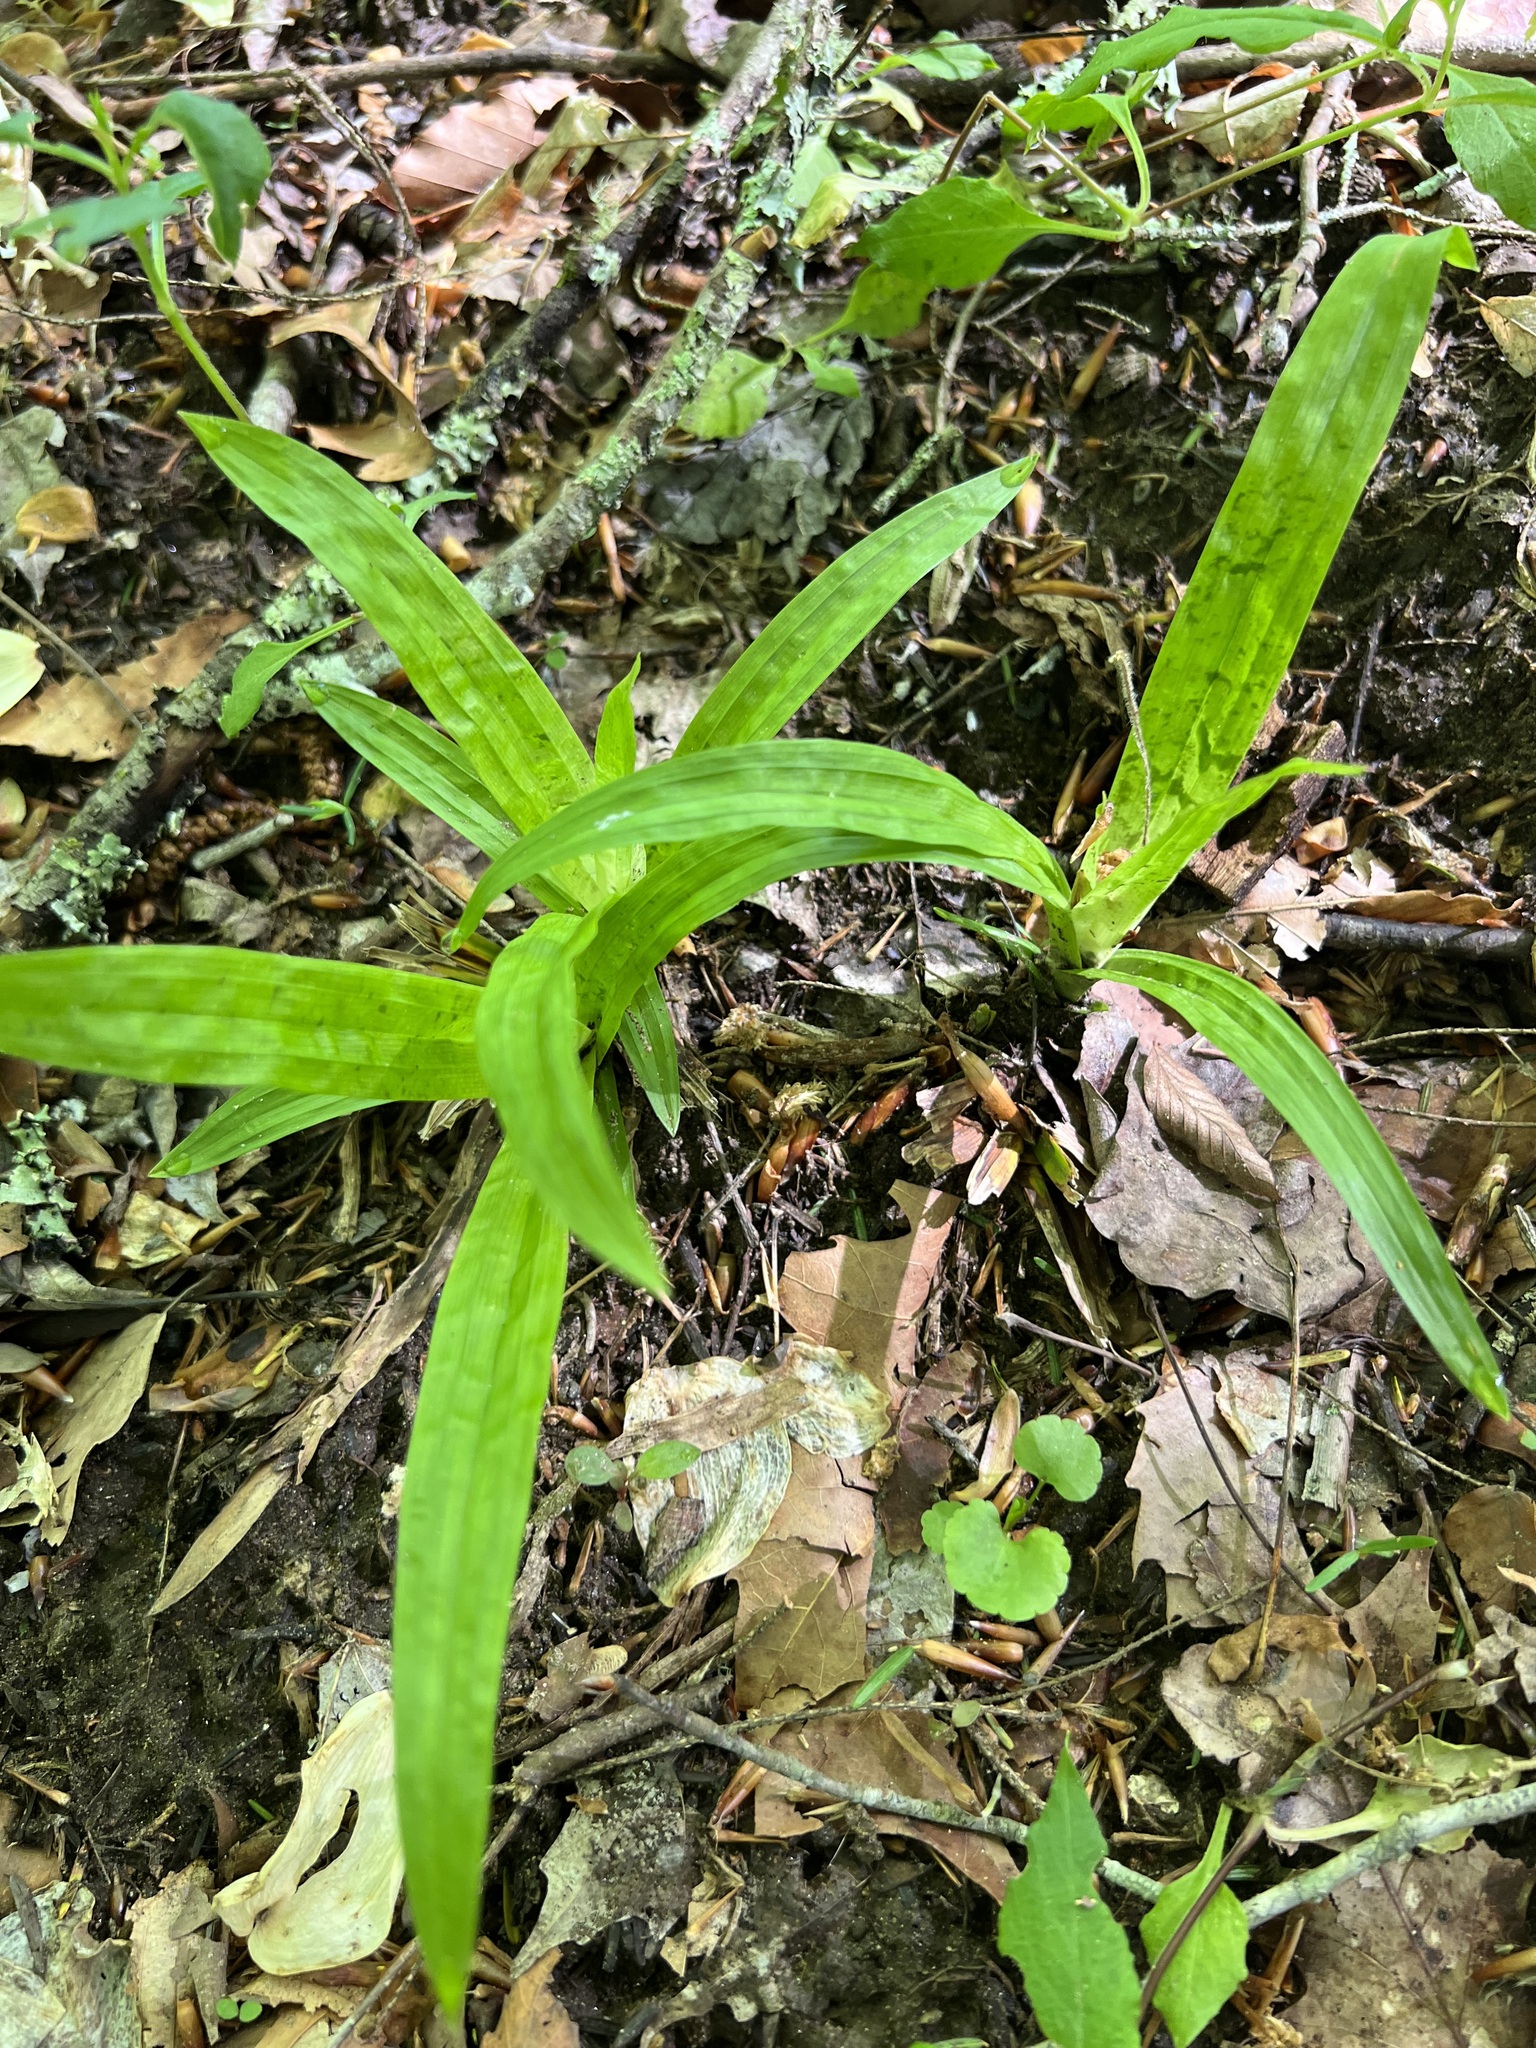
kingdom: Plantae
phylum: Tracheophyta
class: Liliopsida
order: Poales
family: Cyperaceae
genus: Carex
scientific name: Carex plantaginea
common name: Plantain-leaved sedge
